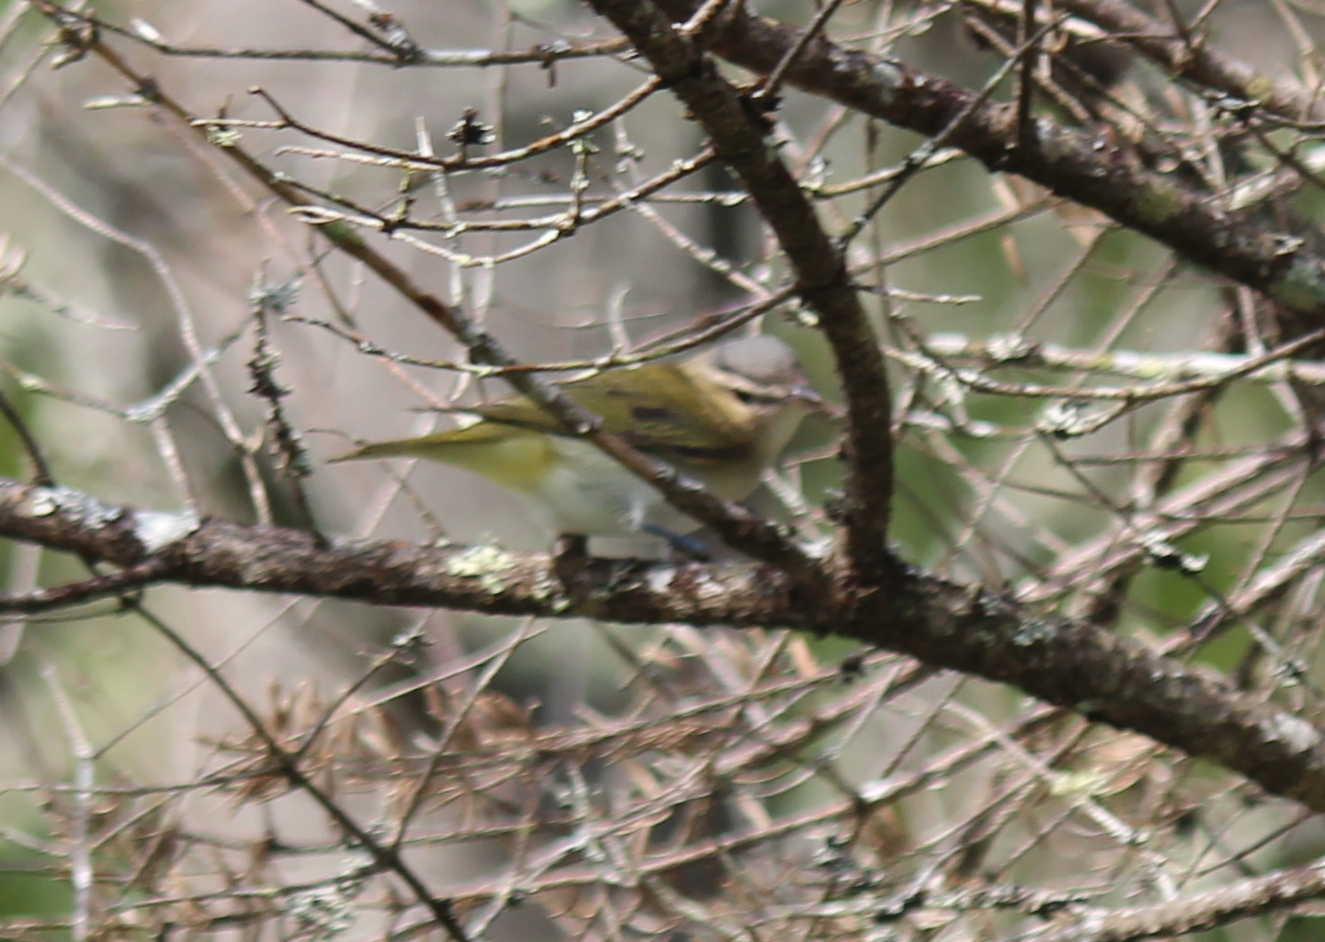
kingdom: Animalia
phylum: Chordata
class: Aves
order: Passeriformes
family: Vireonidae
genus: Vireo
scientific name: Vireo olivaceus
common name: Red-eyed vireo
